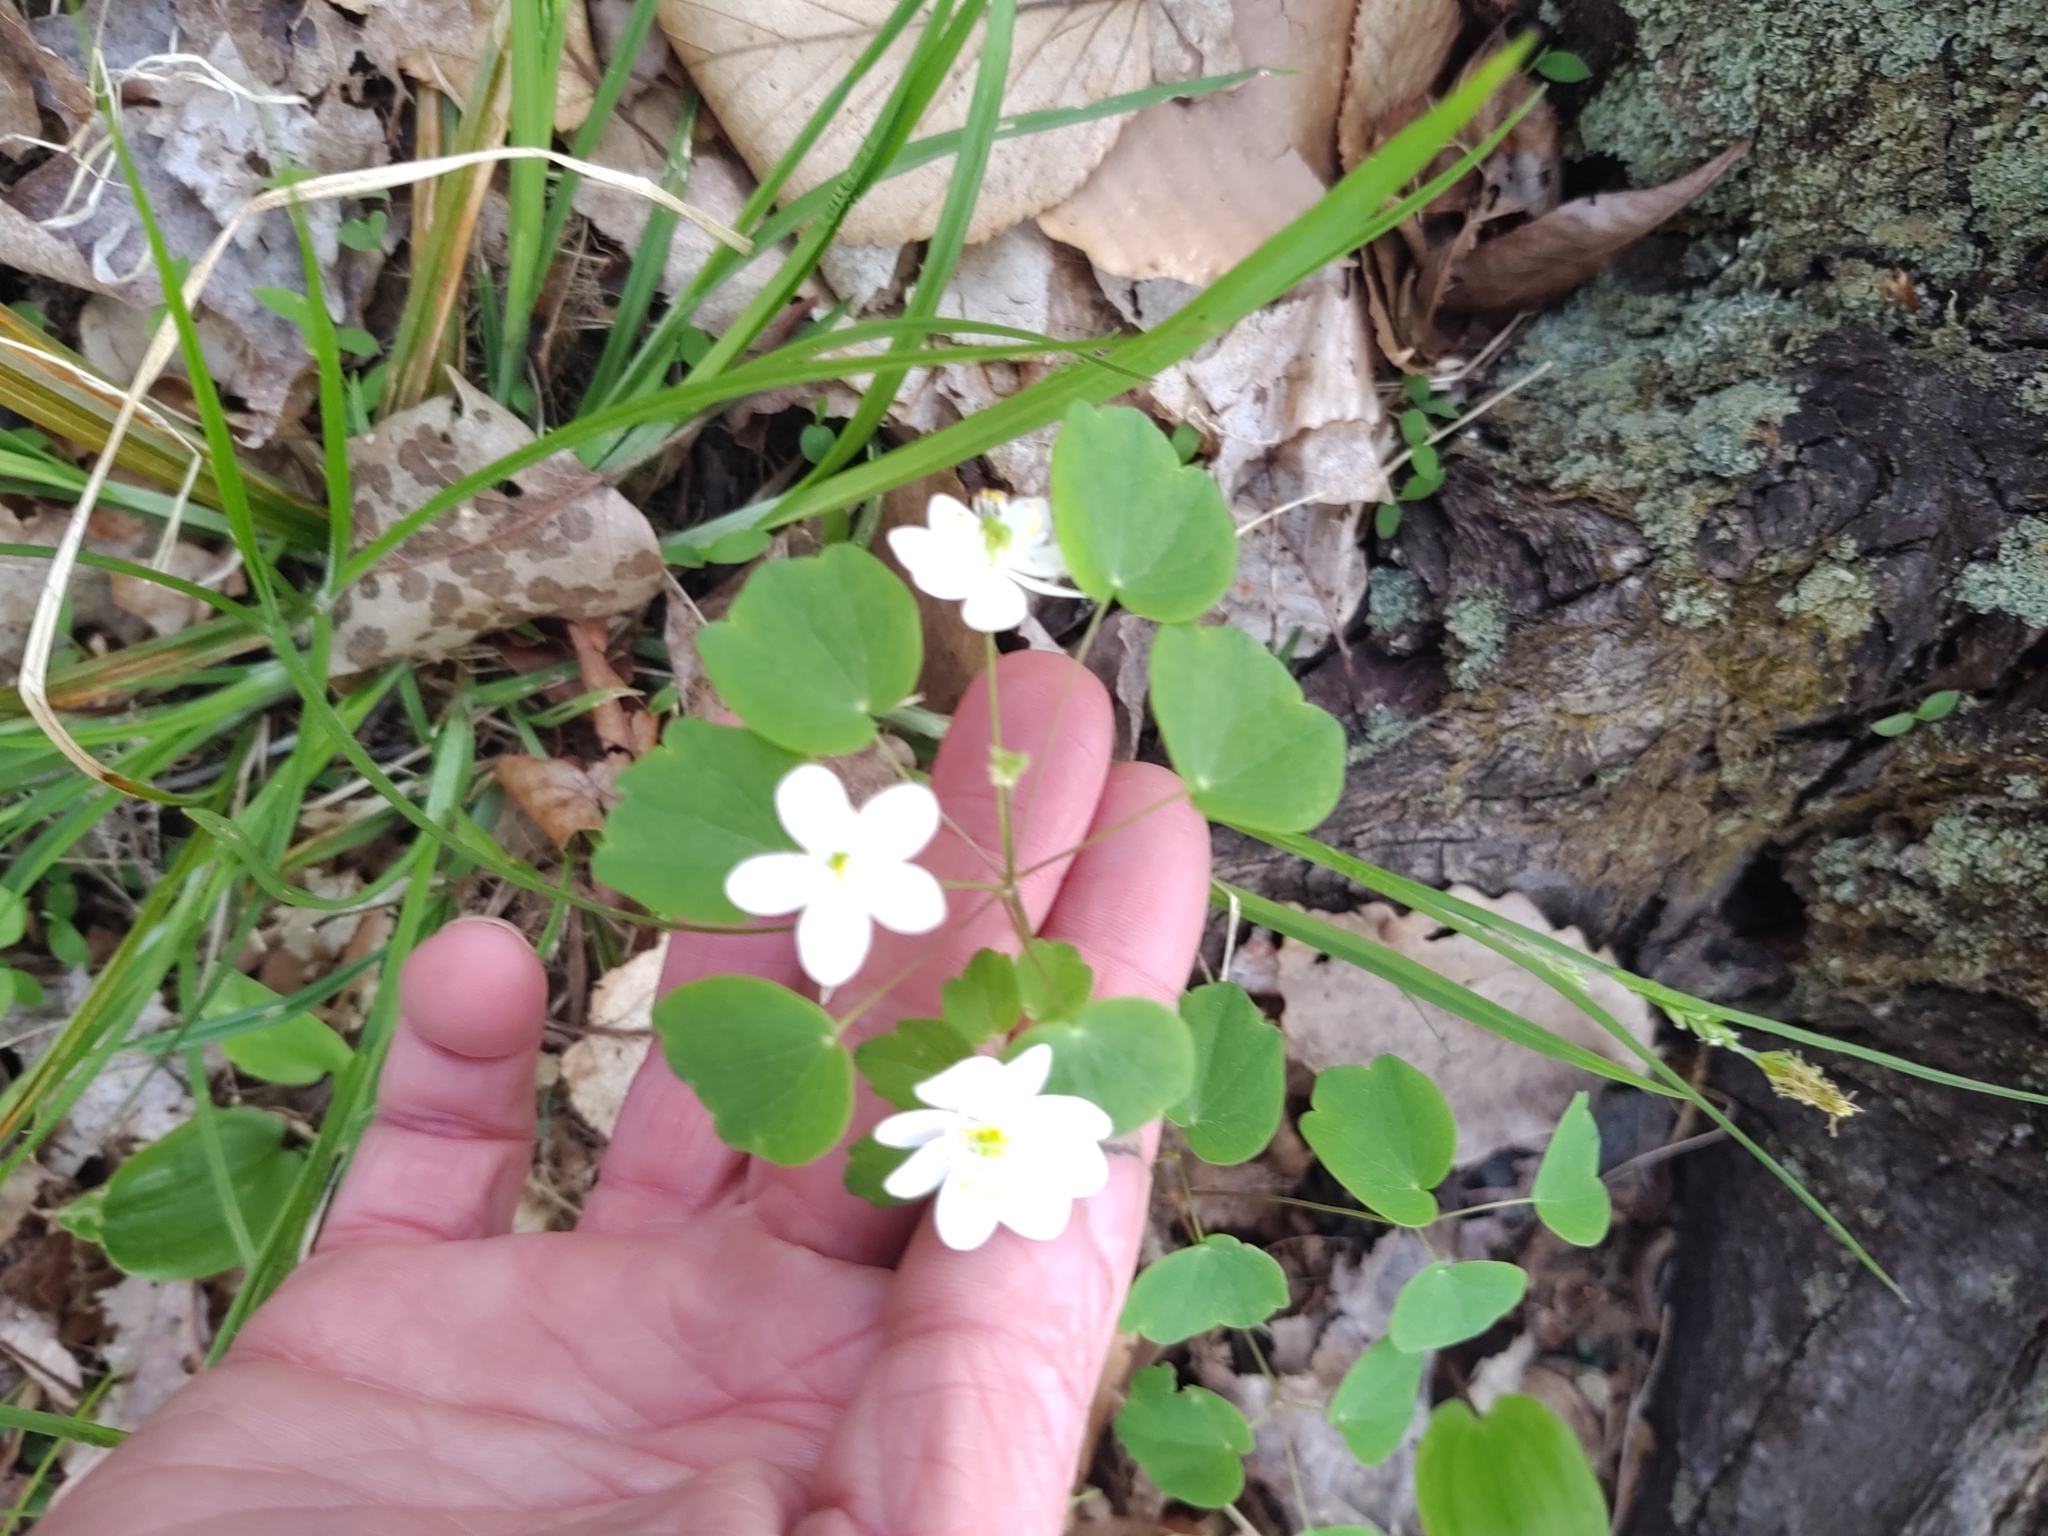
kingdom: Plantae
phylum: Tracheophyta
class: Magnoliopsida
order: Ranunculales
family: Ranunculaceae
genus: Thalictrum
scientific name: Thalictrum thalictroides
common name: Rue-anemone
